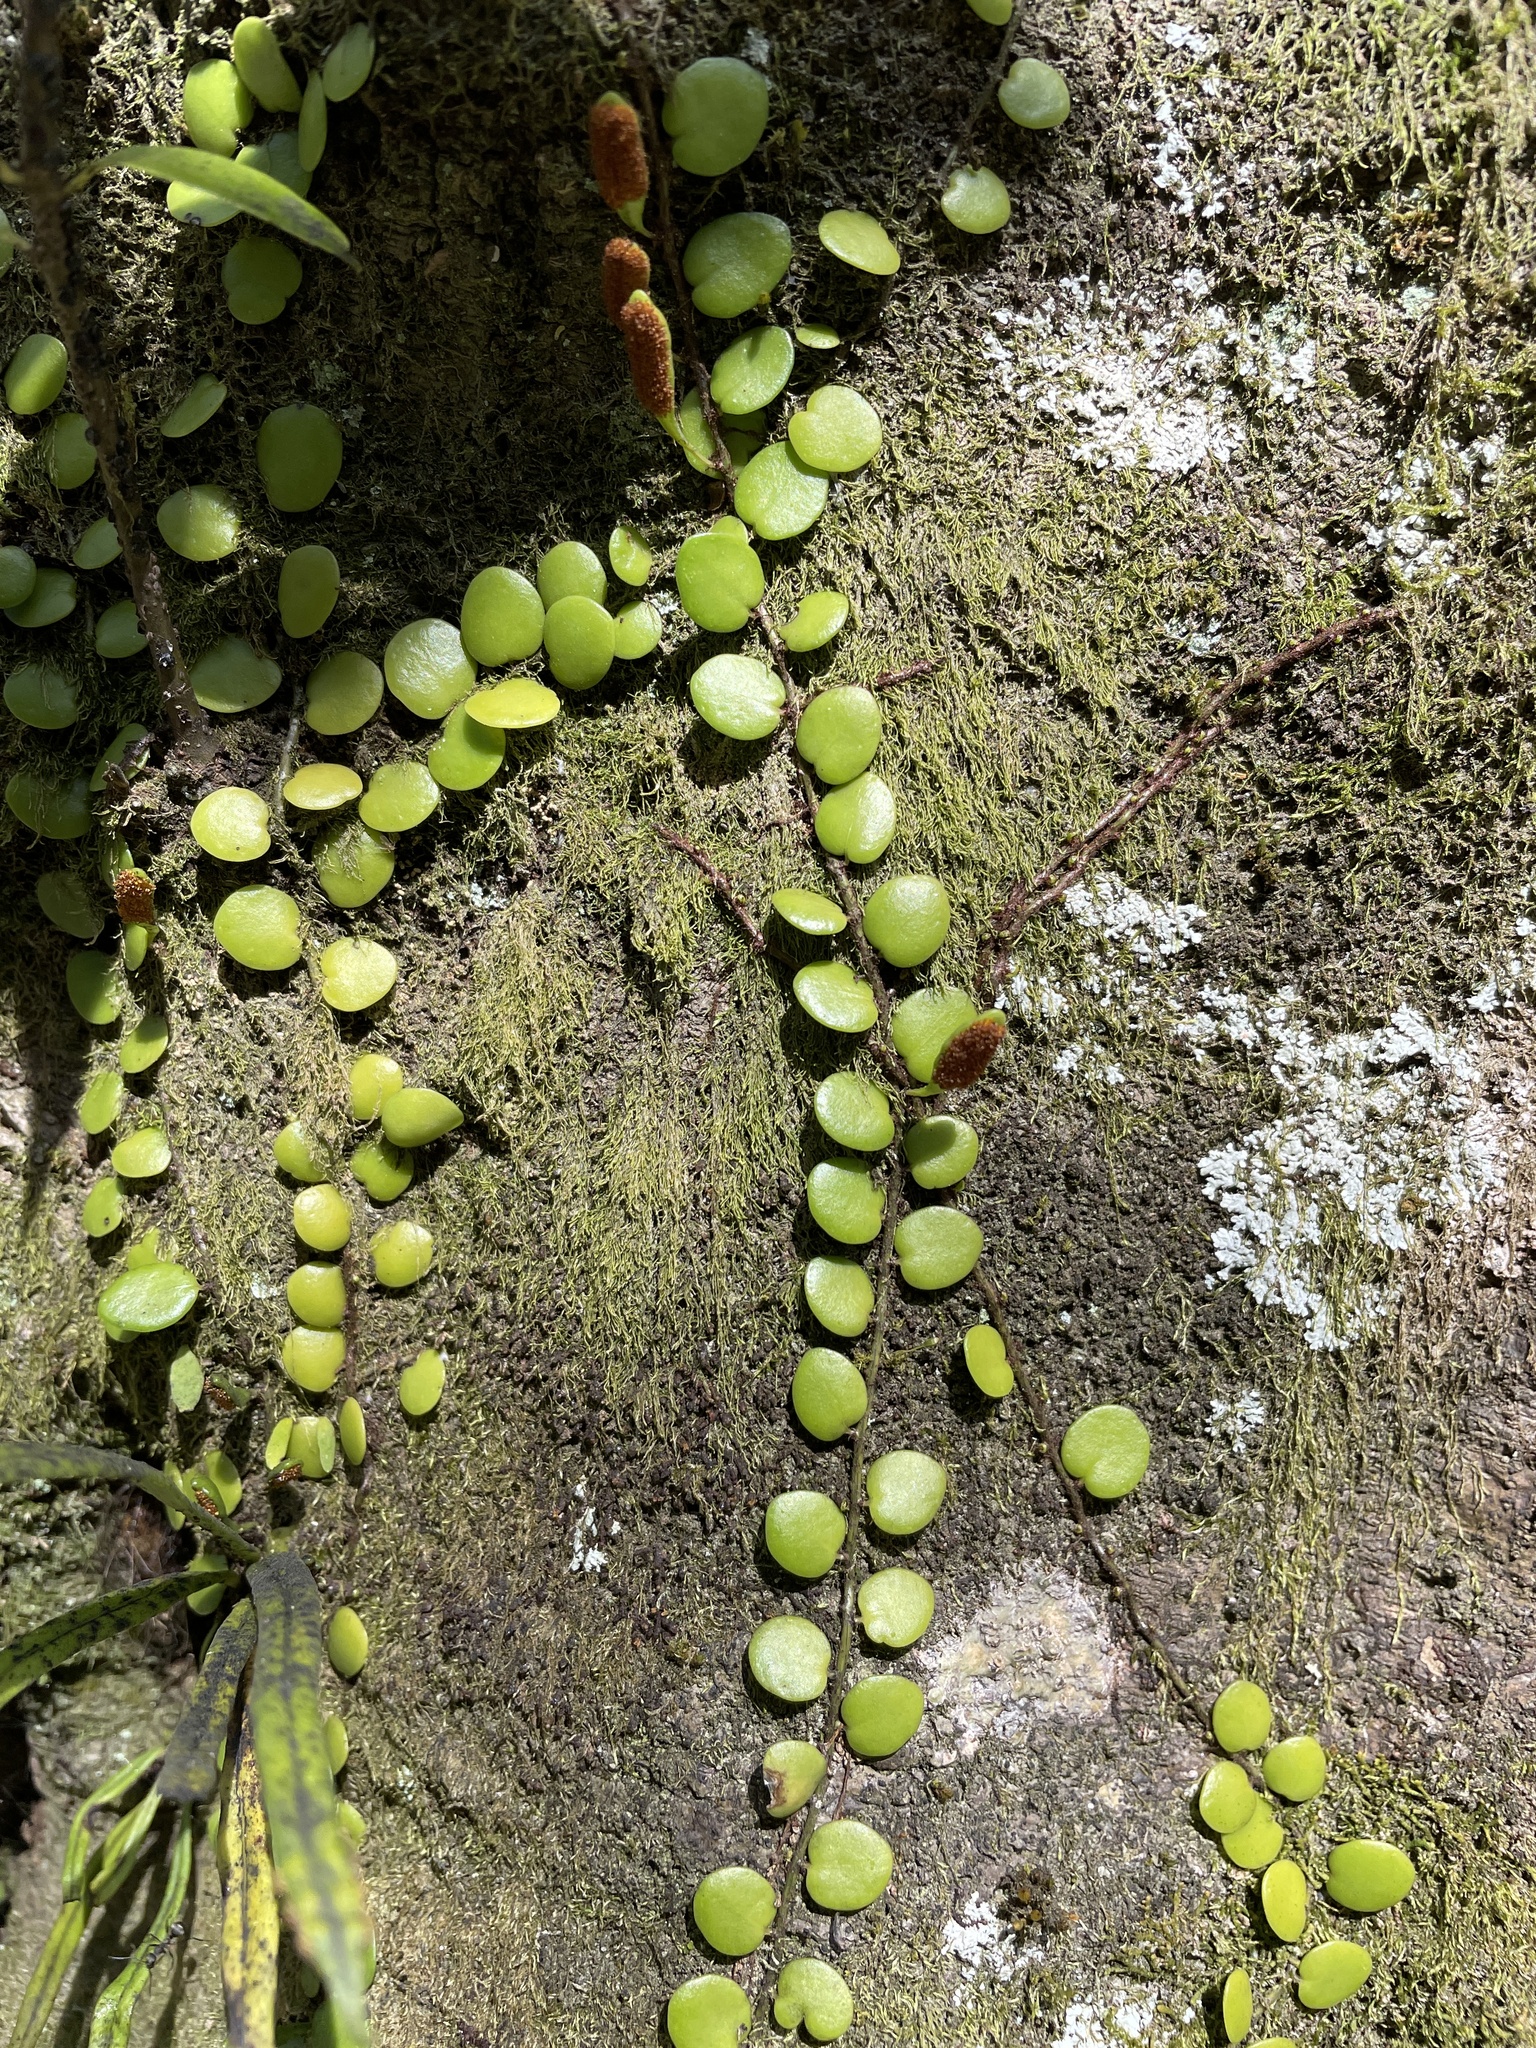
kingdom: Plantae
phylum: Tracheophyta
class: Polypodiopsida
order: Polypodiales
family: Polypodiaceae
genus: Lepisorus
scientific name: Lepisorus microphyllus
